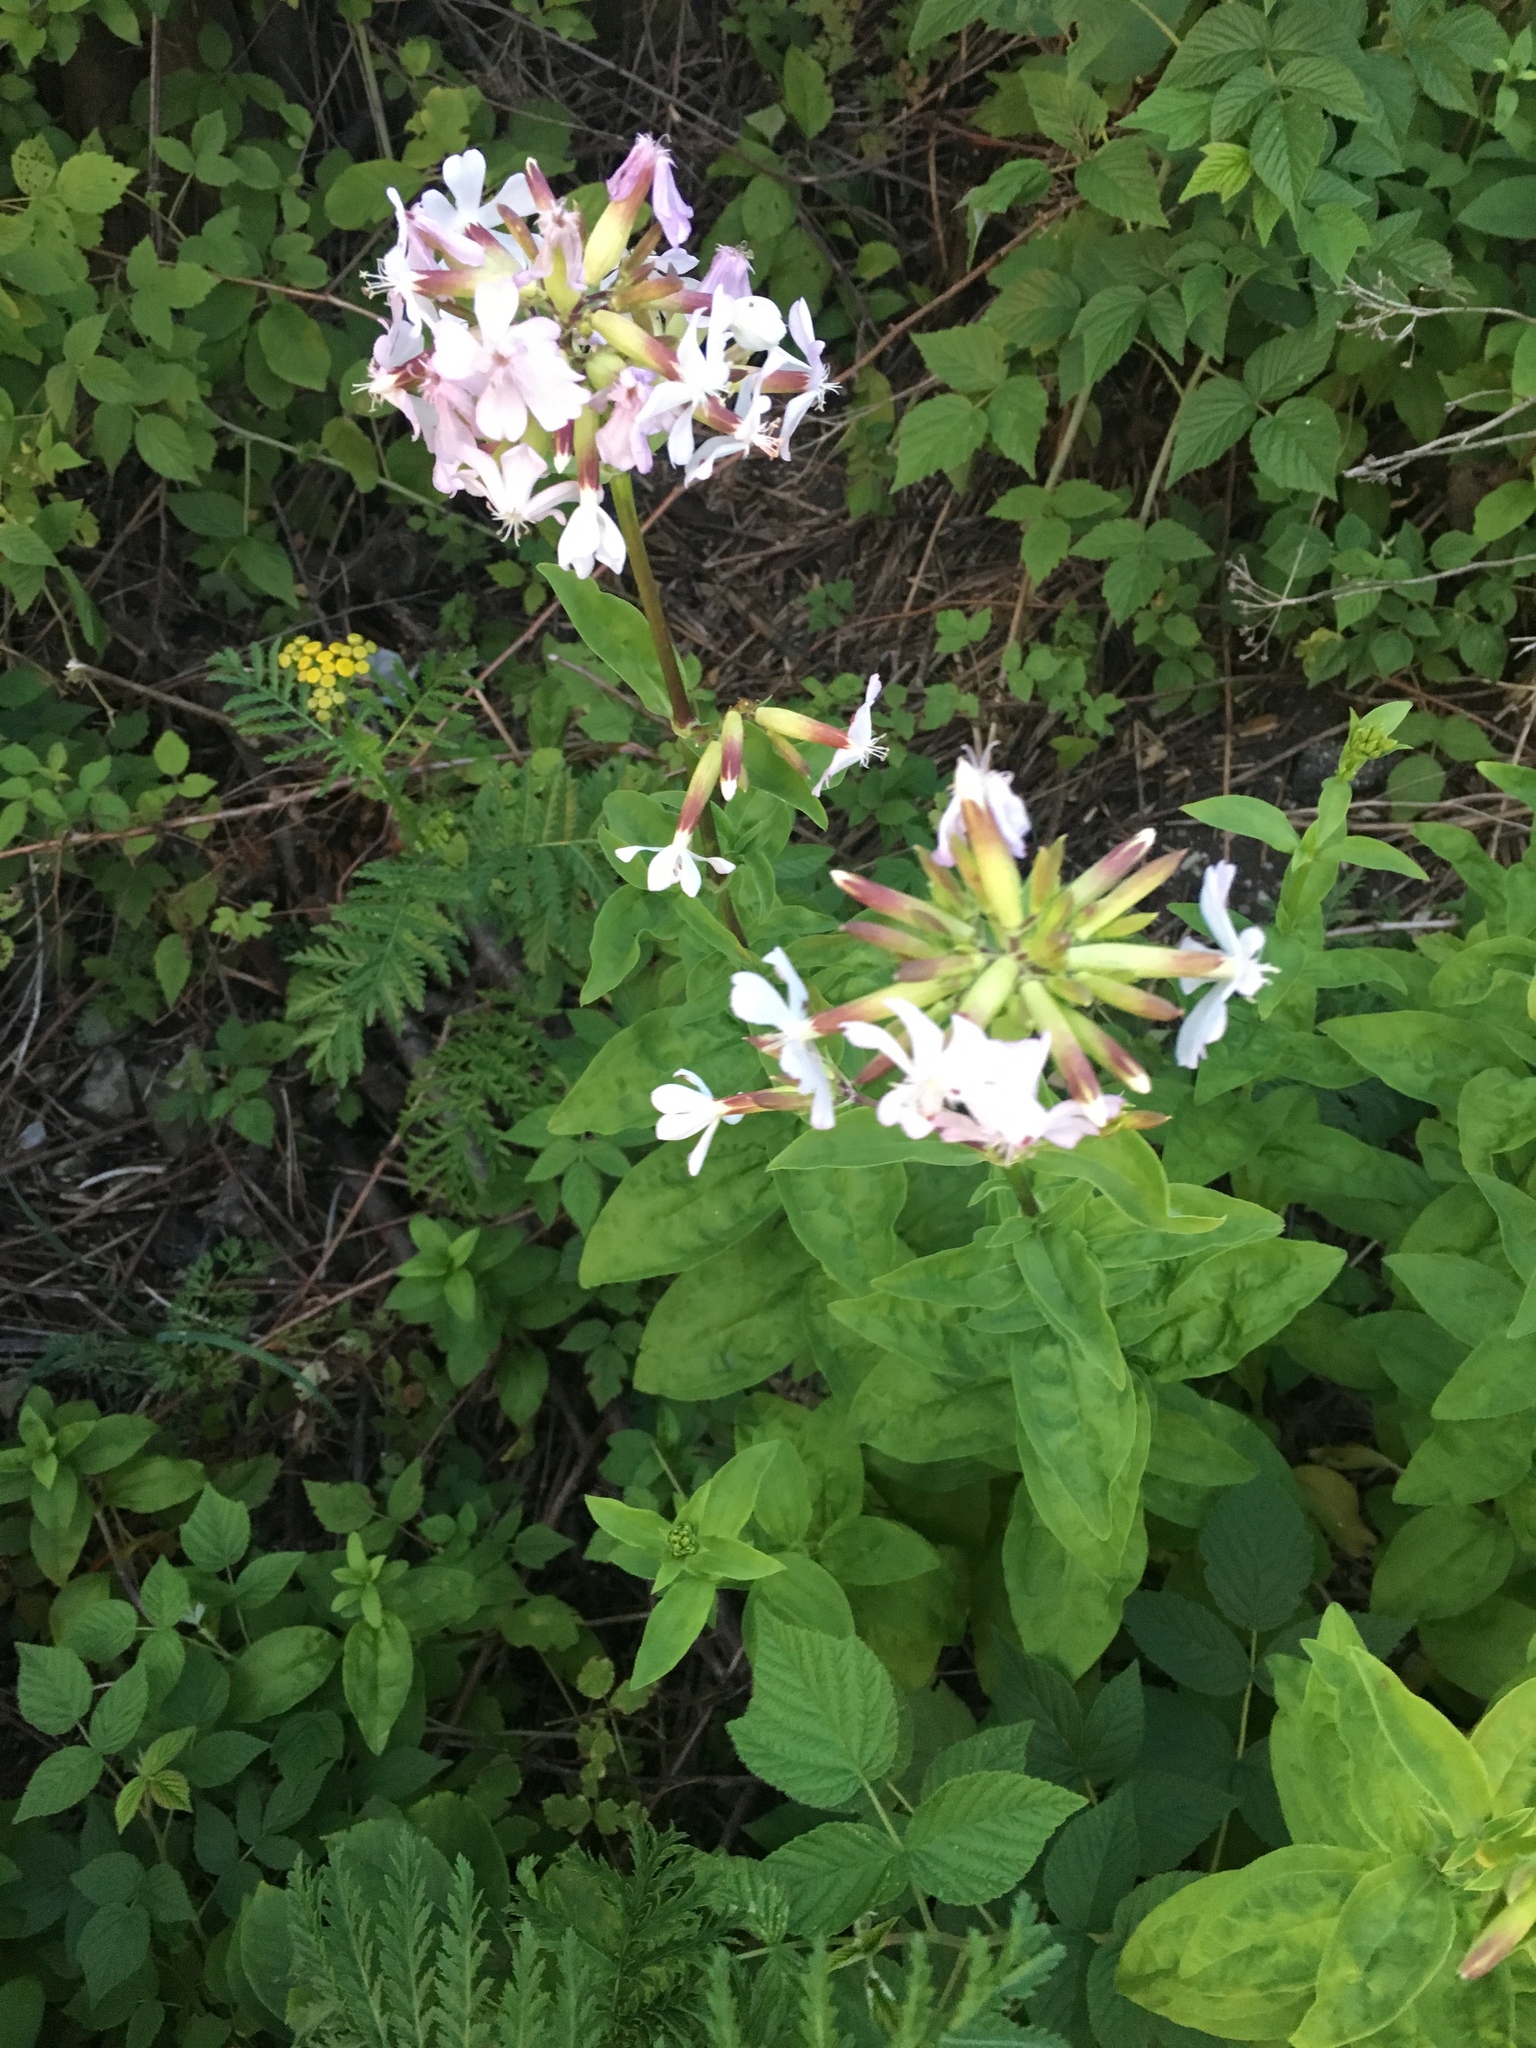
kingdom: Plantae
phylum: Tracheophyta
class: Magnoliopsida
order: Caryophyllales
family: Caryophyllaceae
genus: Saponaria
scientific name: Saponaria officinalis
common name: Soapwort
